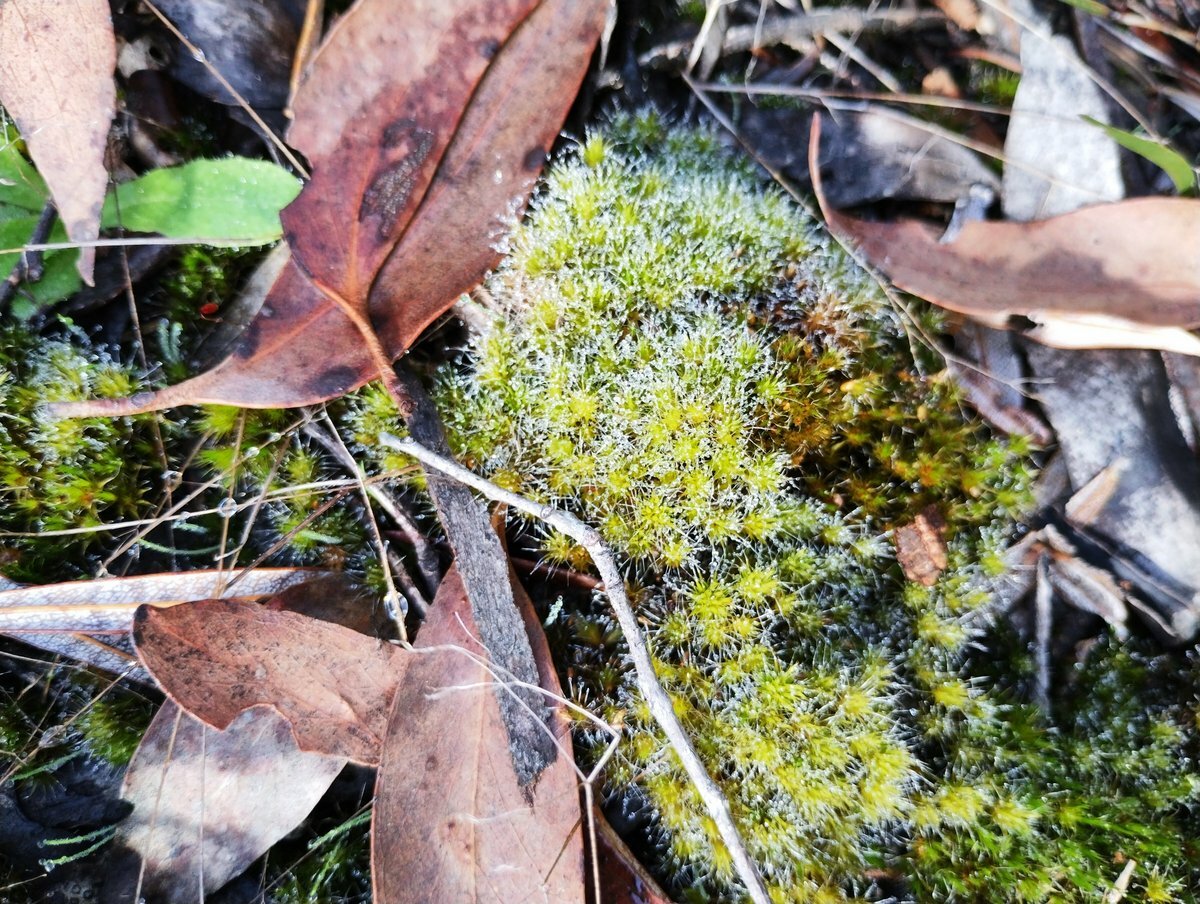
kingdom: Plantae
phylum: Bryophyta
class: Bryopsida
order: Dicranales
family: Leucobryaceae
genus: Campylopus
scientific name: Campylopus introflexus
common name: Heath star moss
